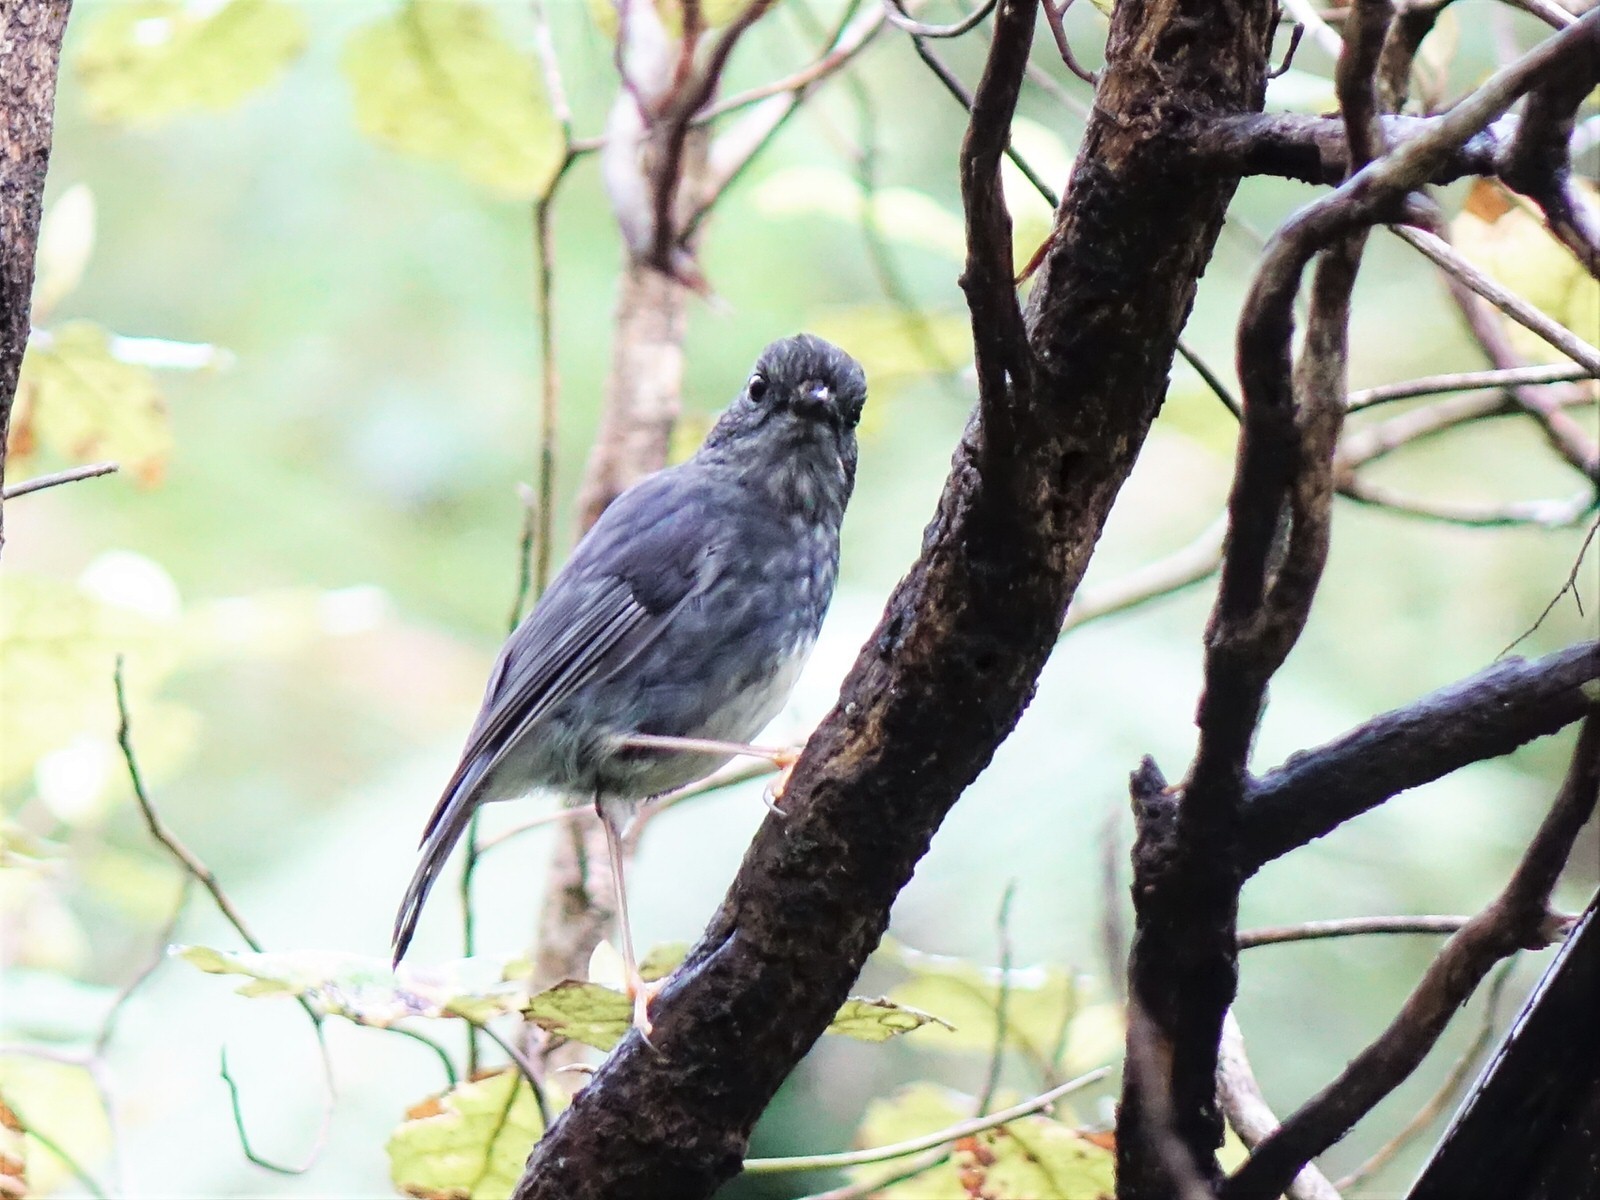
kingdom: Animalia
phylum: Chordata
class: Aves
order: Passeriformes
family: Petroicidae
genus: Petroica
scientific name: Petroica australis
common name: New zealand robin
